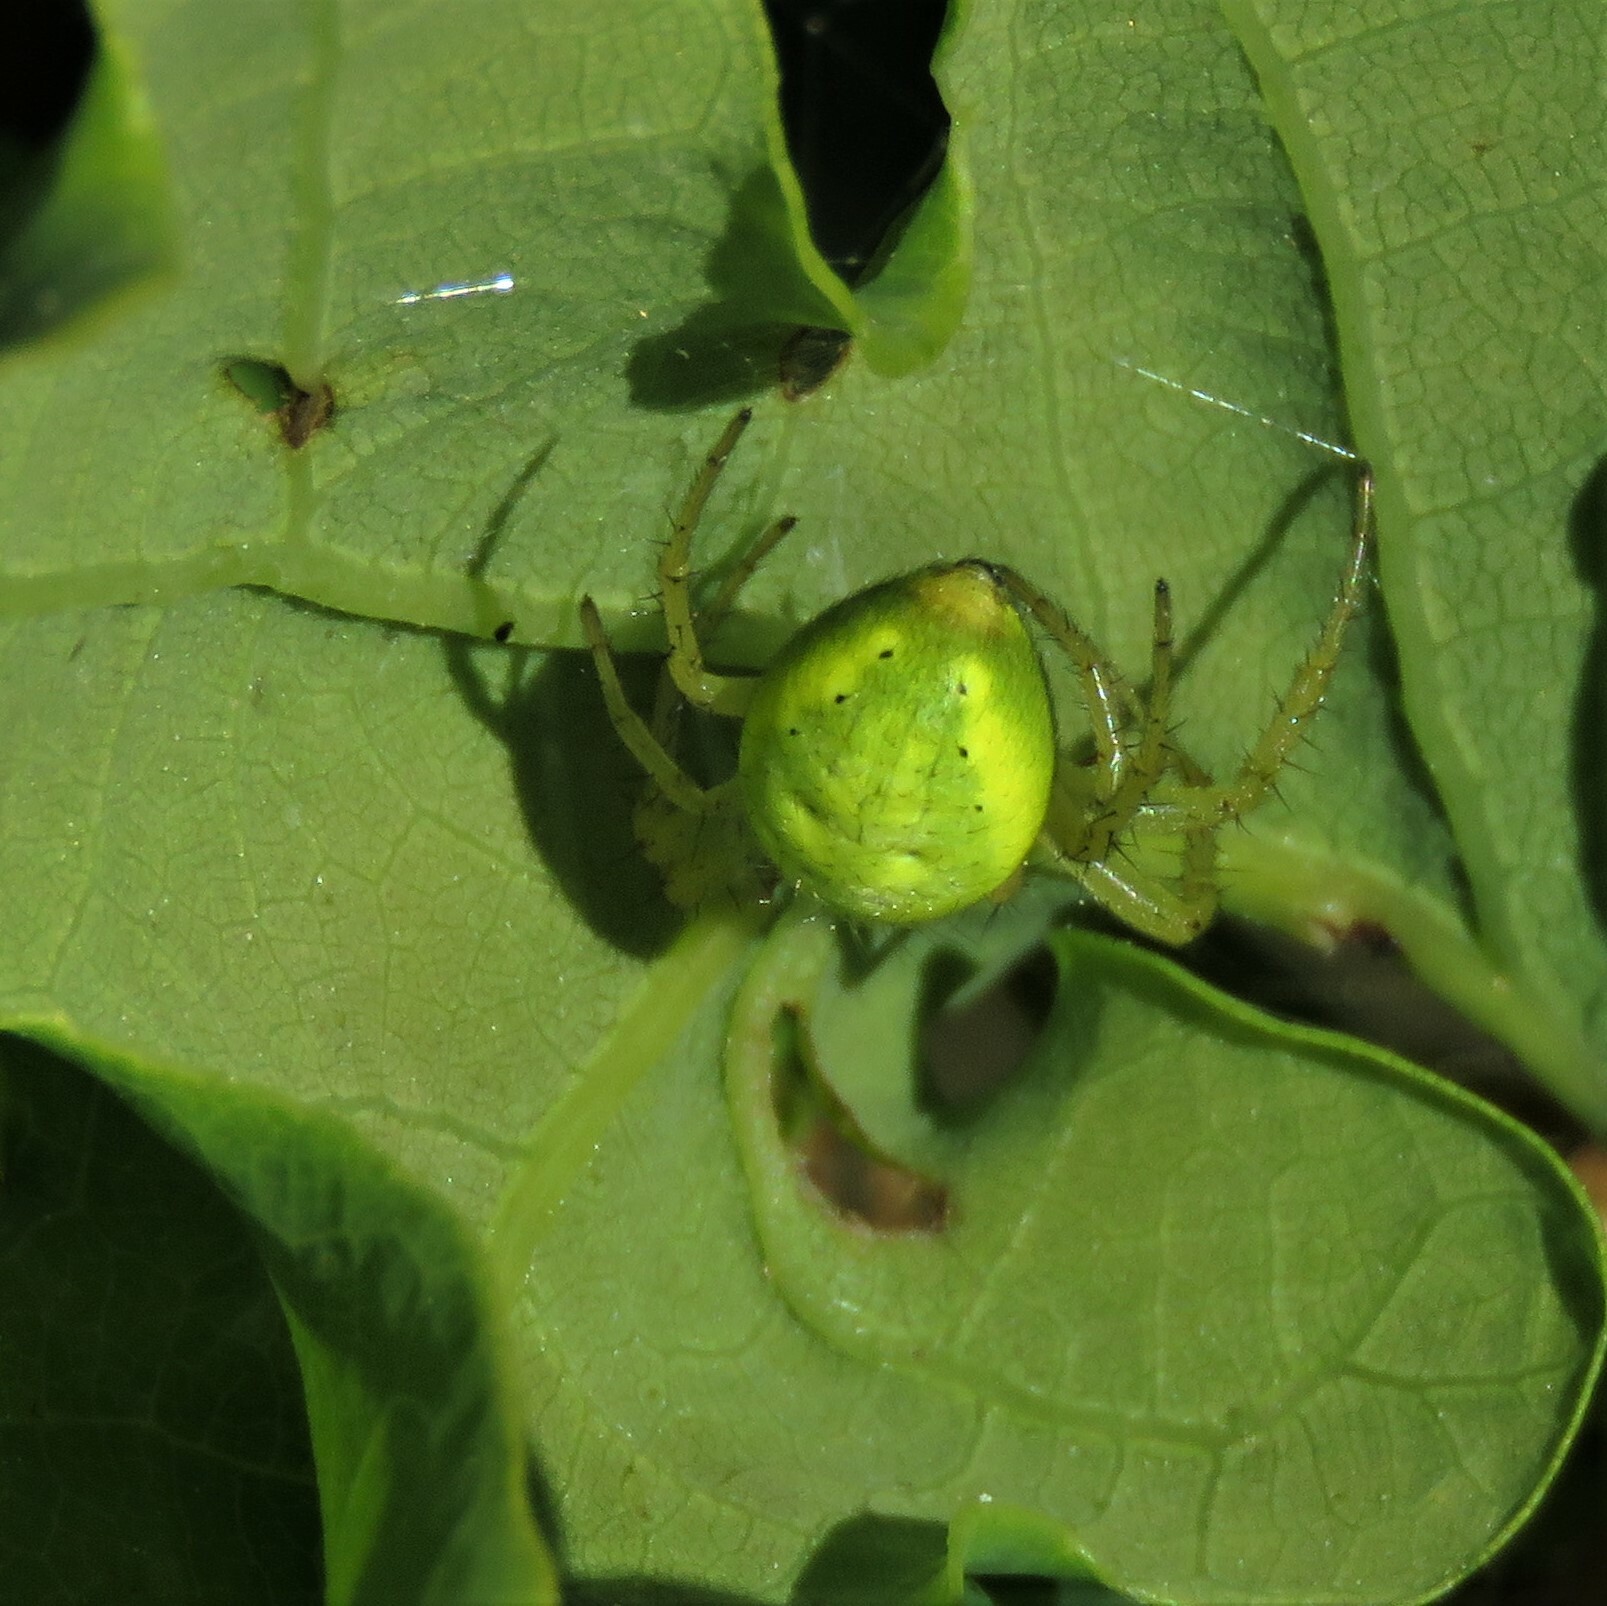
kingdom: Animalia
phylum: Arthropoda
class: Arachnida
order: Araneae
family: Araneidae
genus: Araniella
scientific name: Araniella
